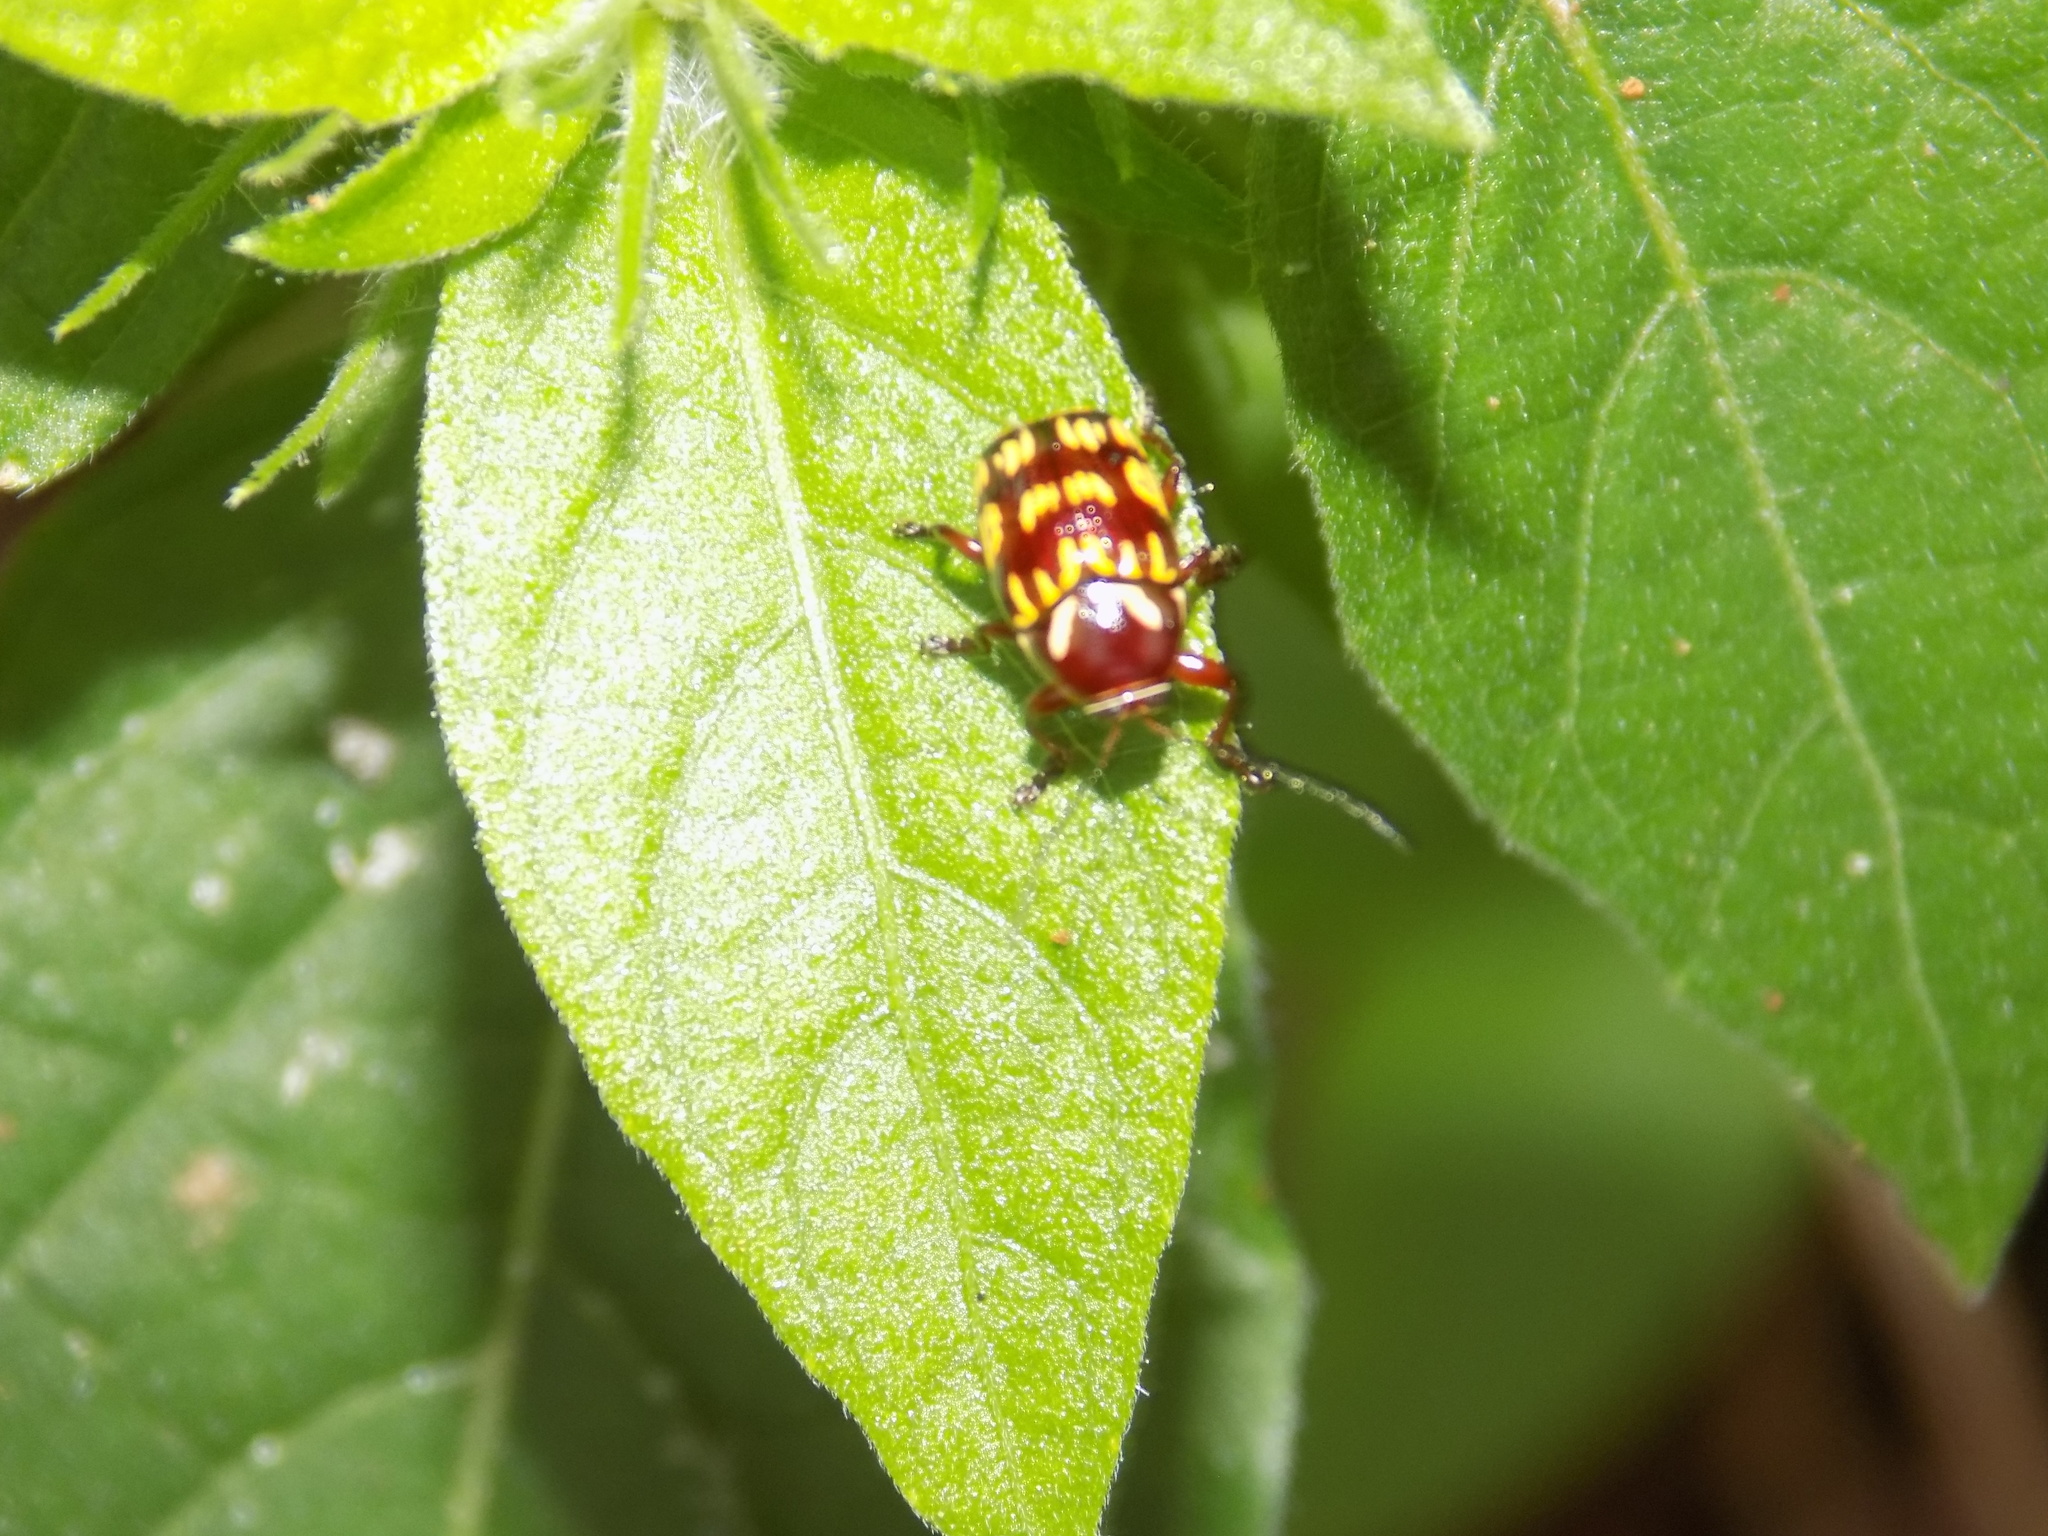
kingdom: Animalia
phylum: Arthropoda
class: Insecta
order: Coleoptera
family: Chrysomelidae
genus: Bassareus
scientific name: Bassareus brunnipes
